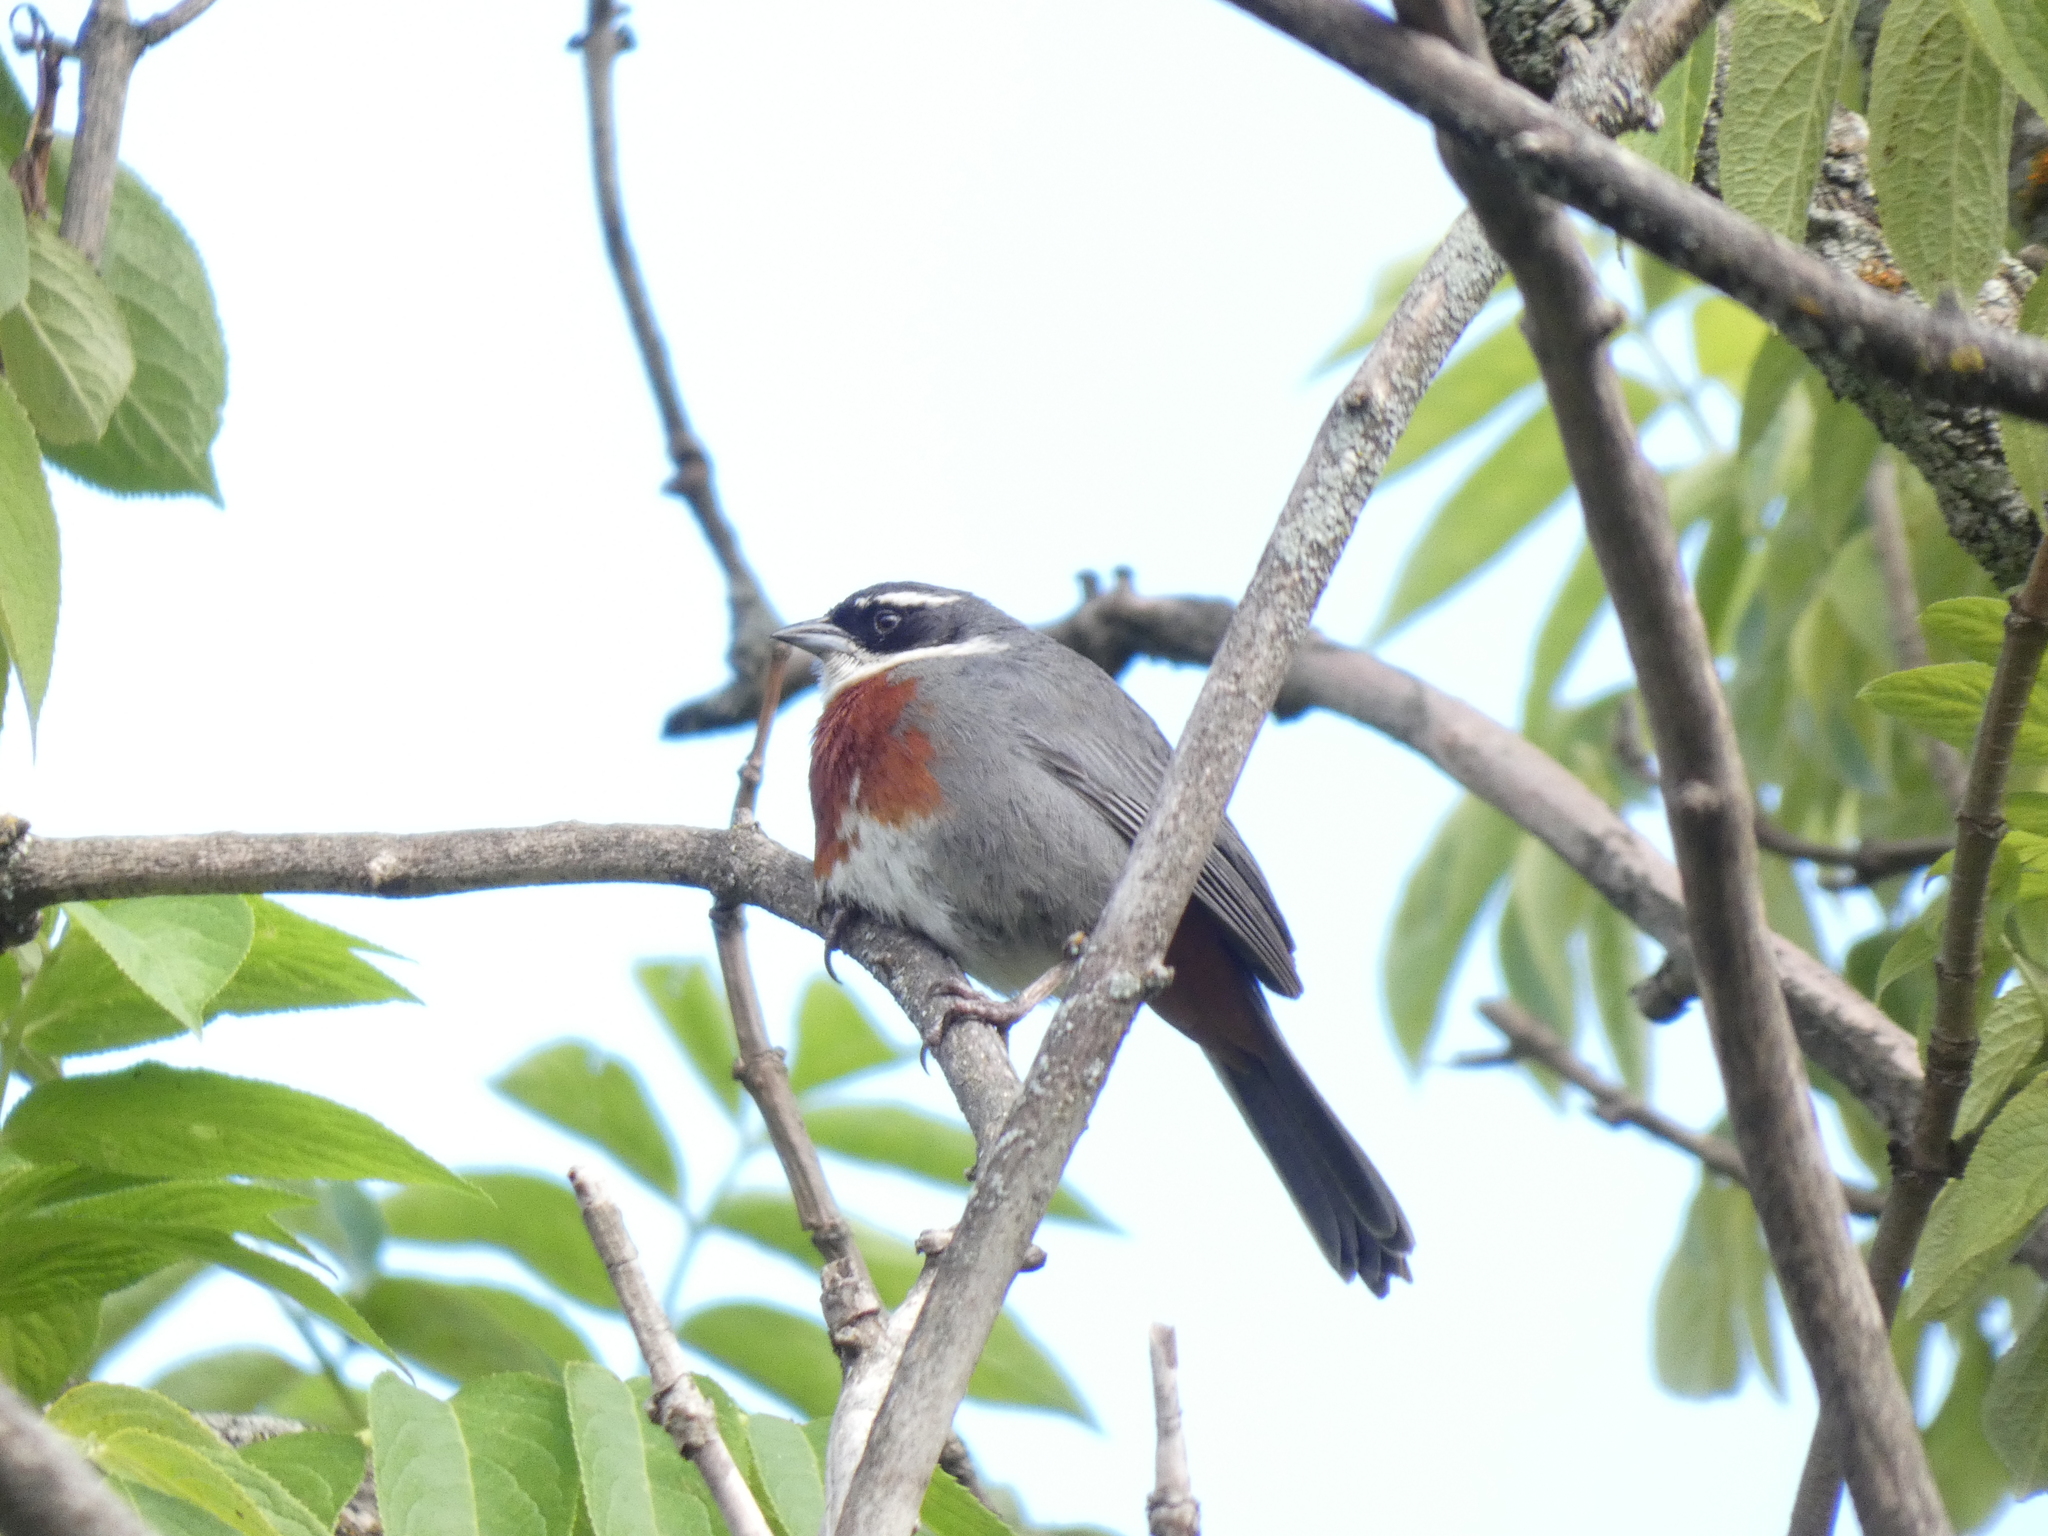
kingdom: Animalia
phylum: Chordata
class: Aves
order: Passeriformes
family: Thraupidae
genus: Poospizopsis
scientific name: Poospizopsis caesar
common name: Chestnut-breasted mountain-finch
